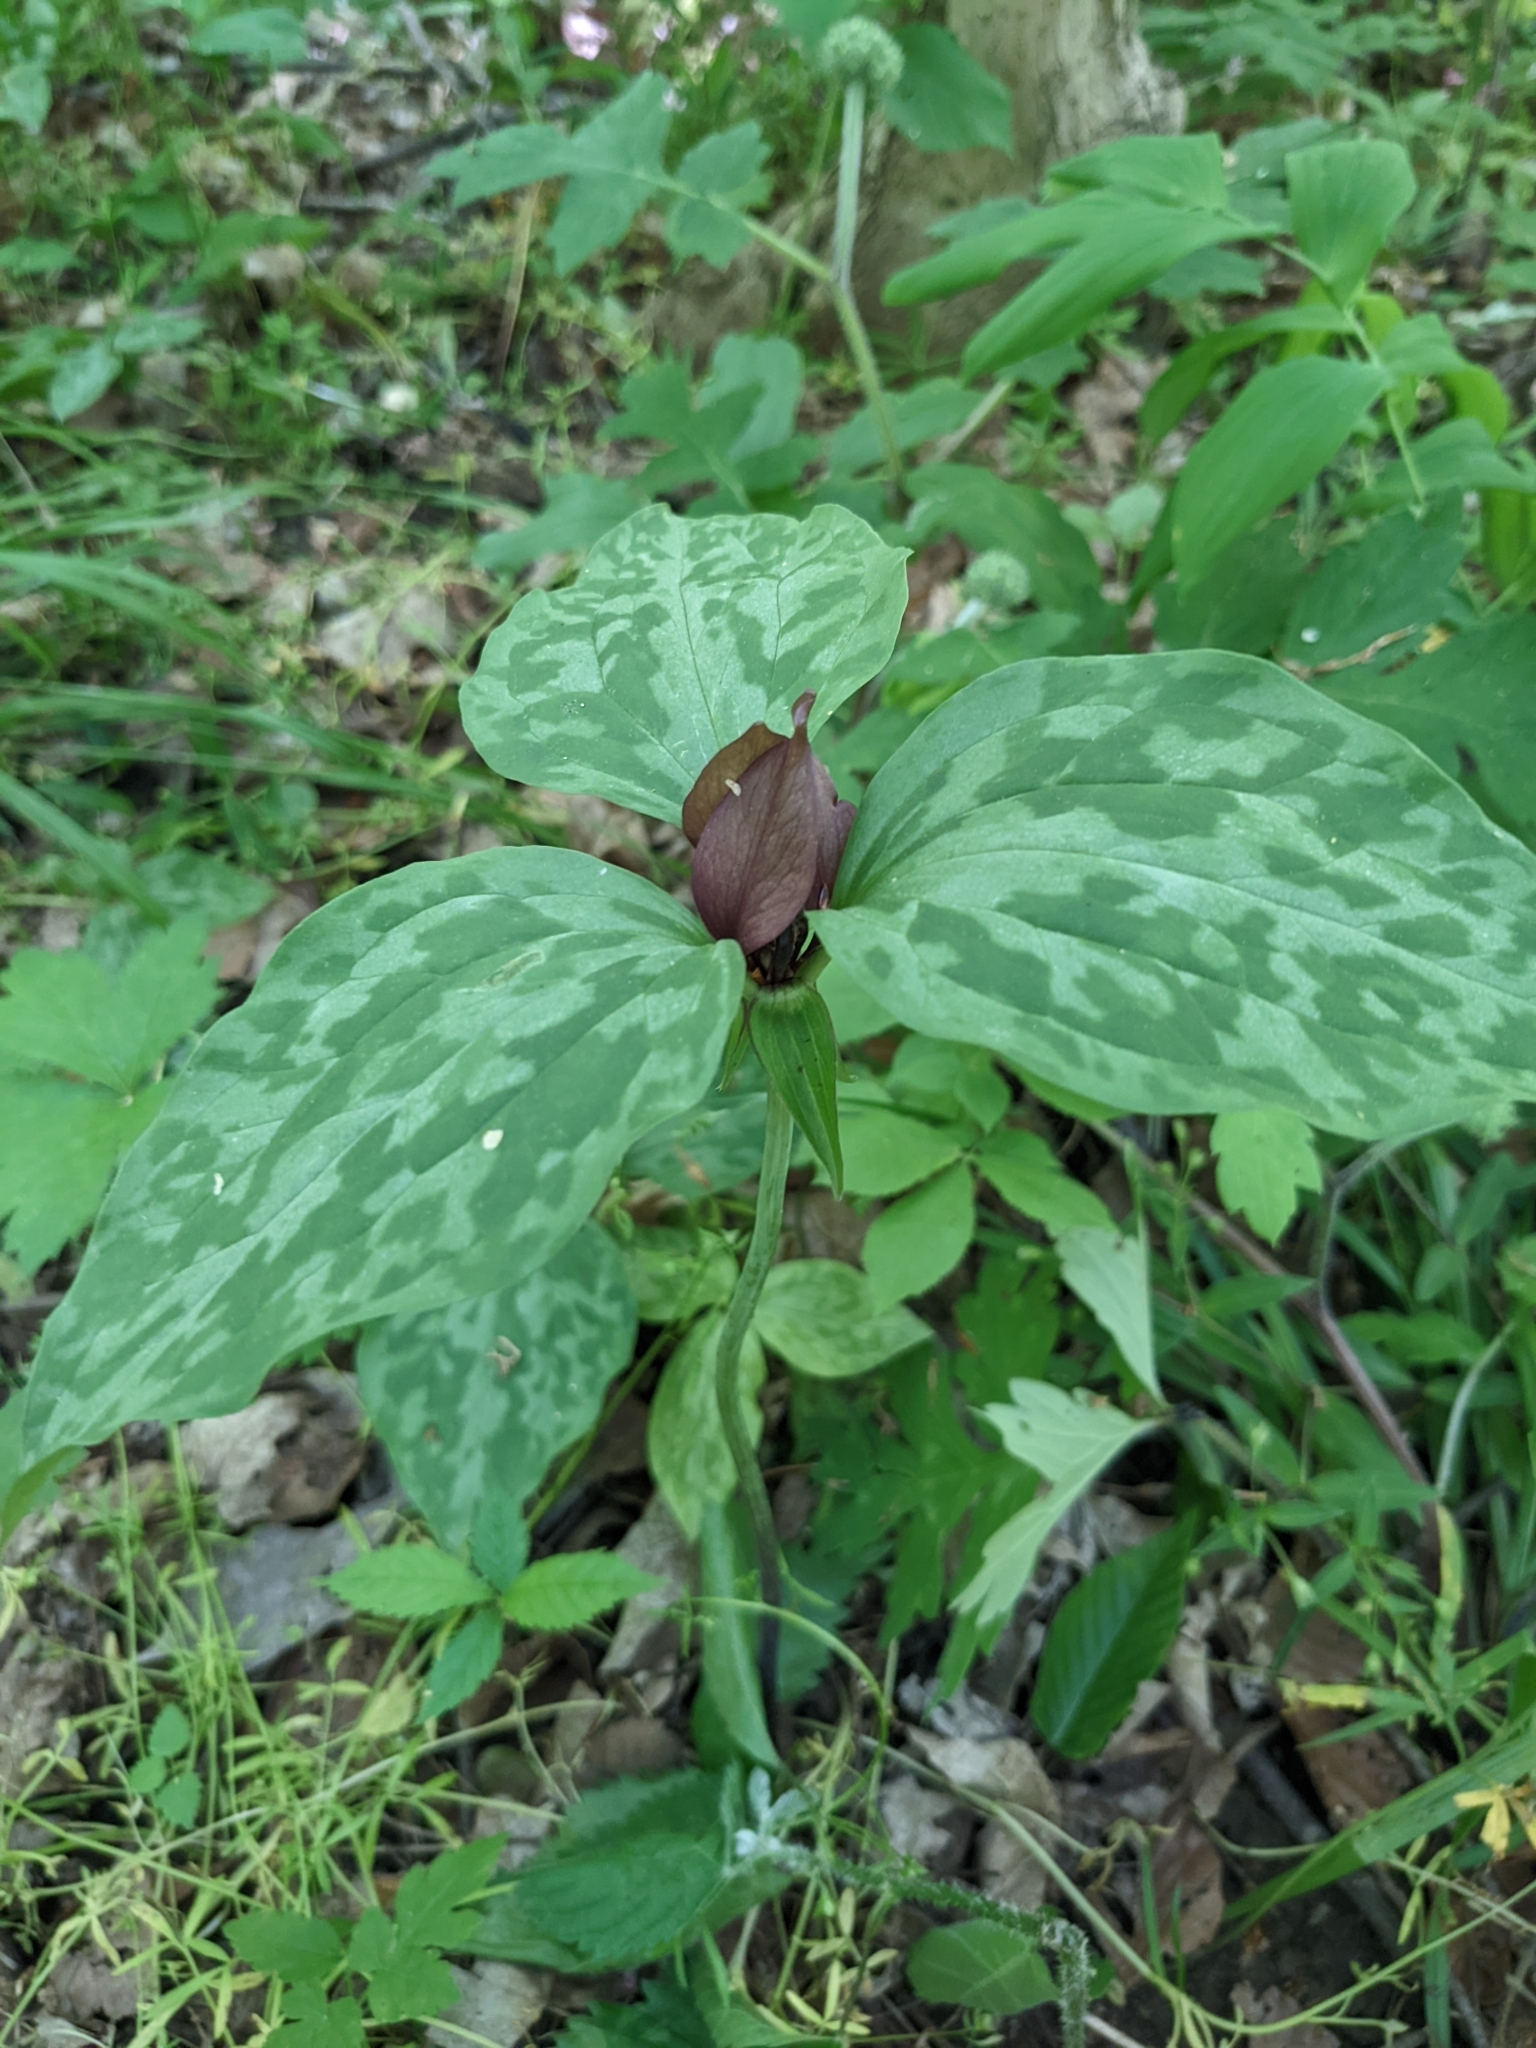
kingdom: Plantae
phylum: Tracheophyta
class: Liliopsida
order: Liliales
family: Melanthiaceae
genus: Trillium
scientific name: Trillium recurvatum
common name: Bloody butcher
